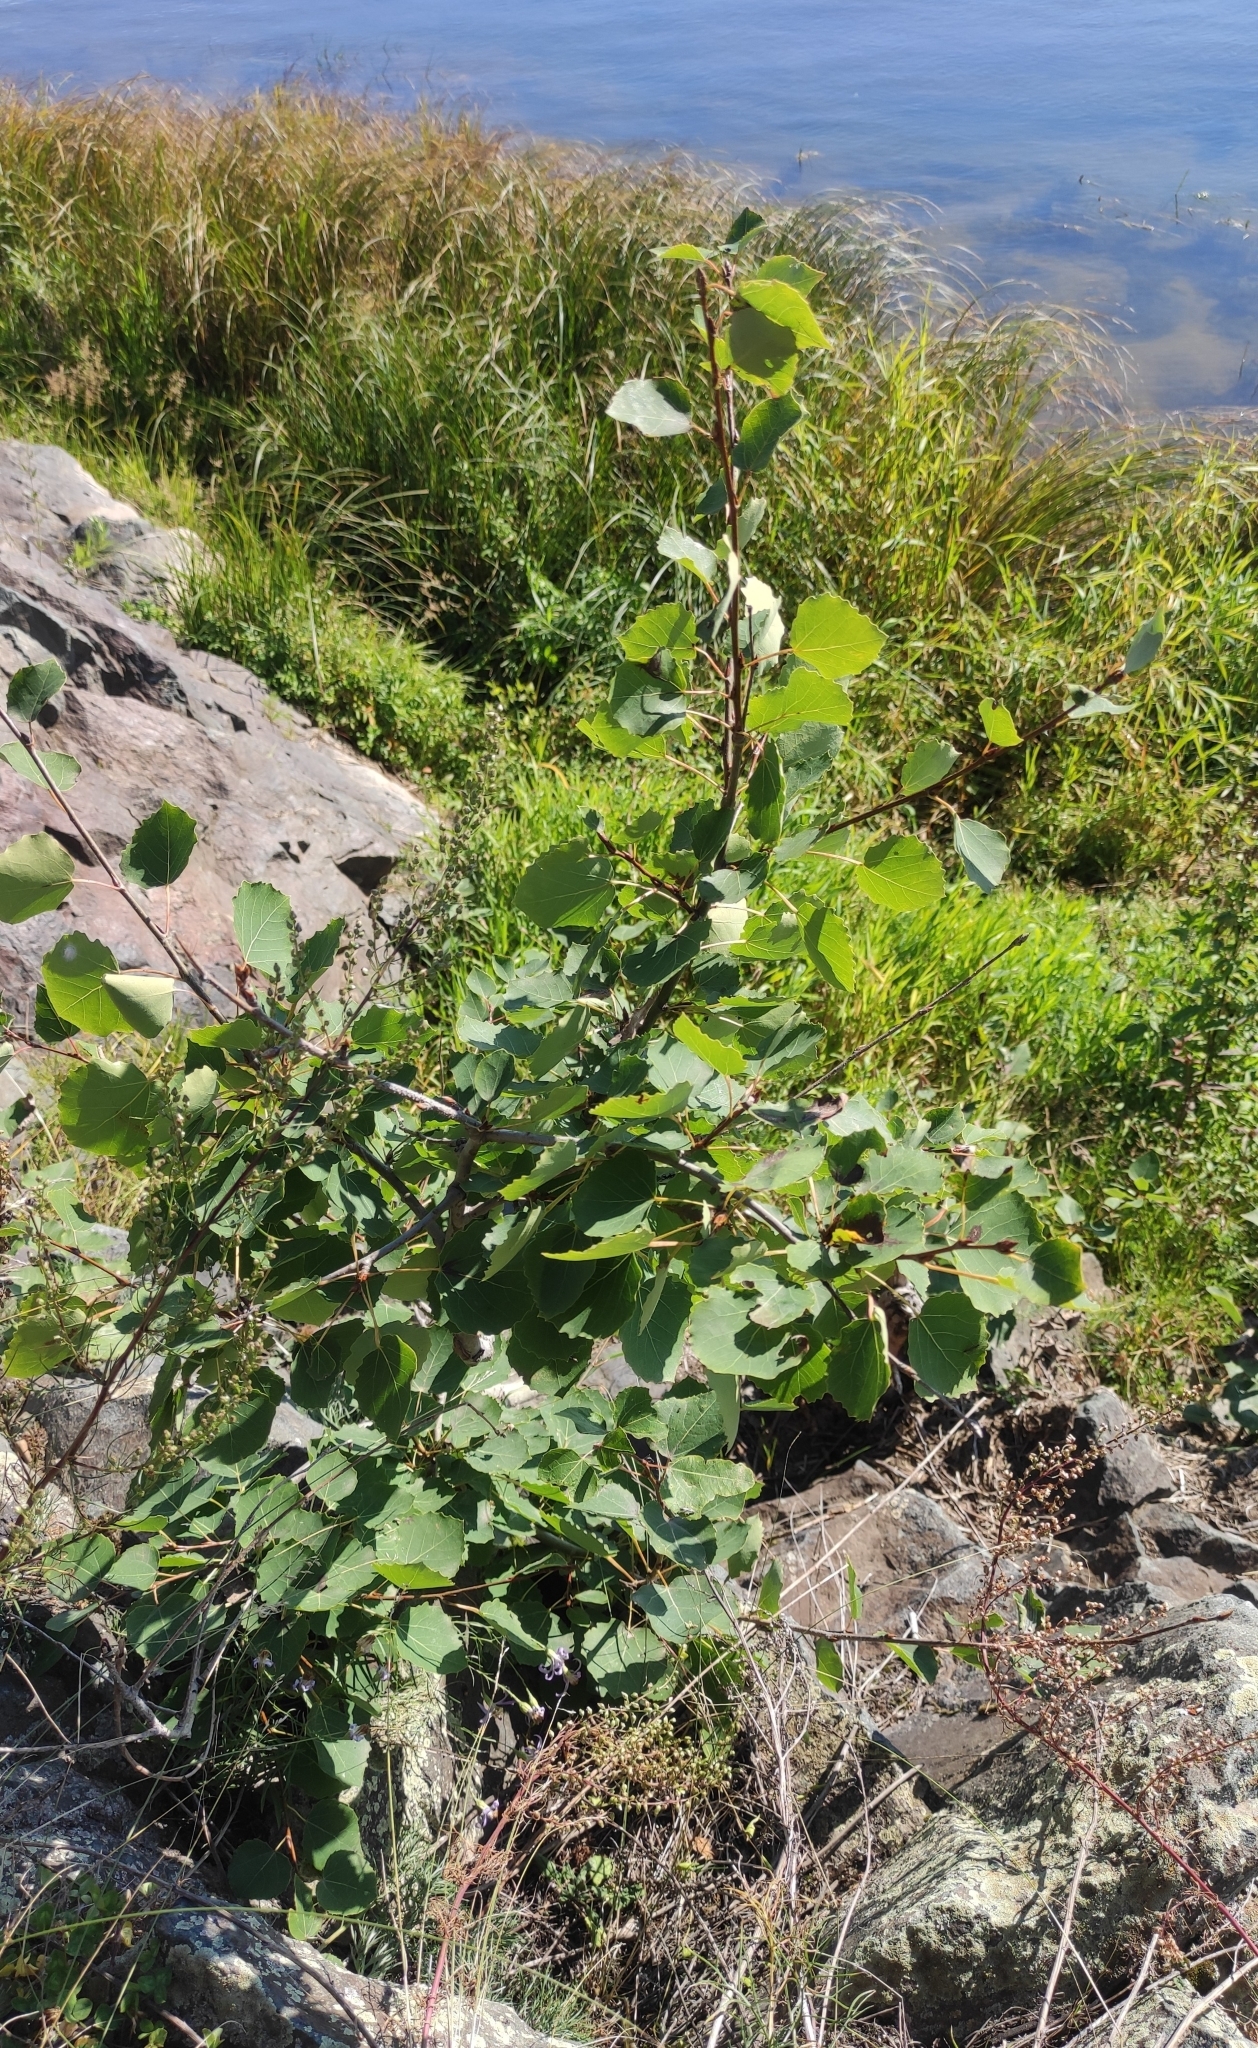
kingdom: Plantae
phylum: Tracheophyta
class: Magnoliopsida
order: Malpighiales
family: Salicaceae
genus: Populus
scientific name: Populus tremula
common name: European aspen
